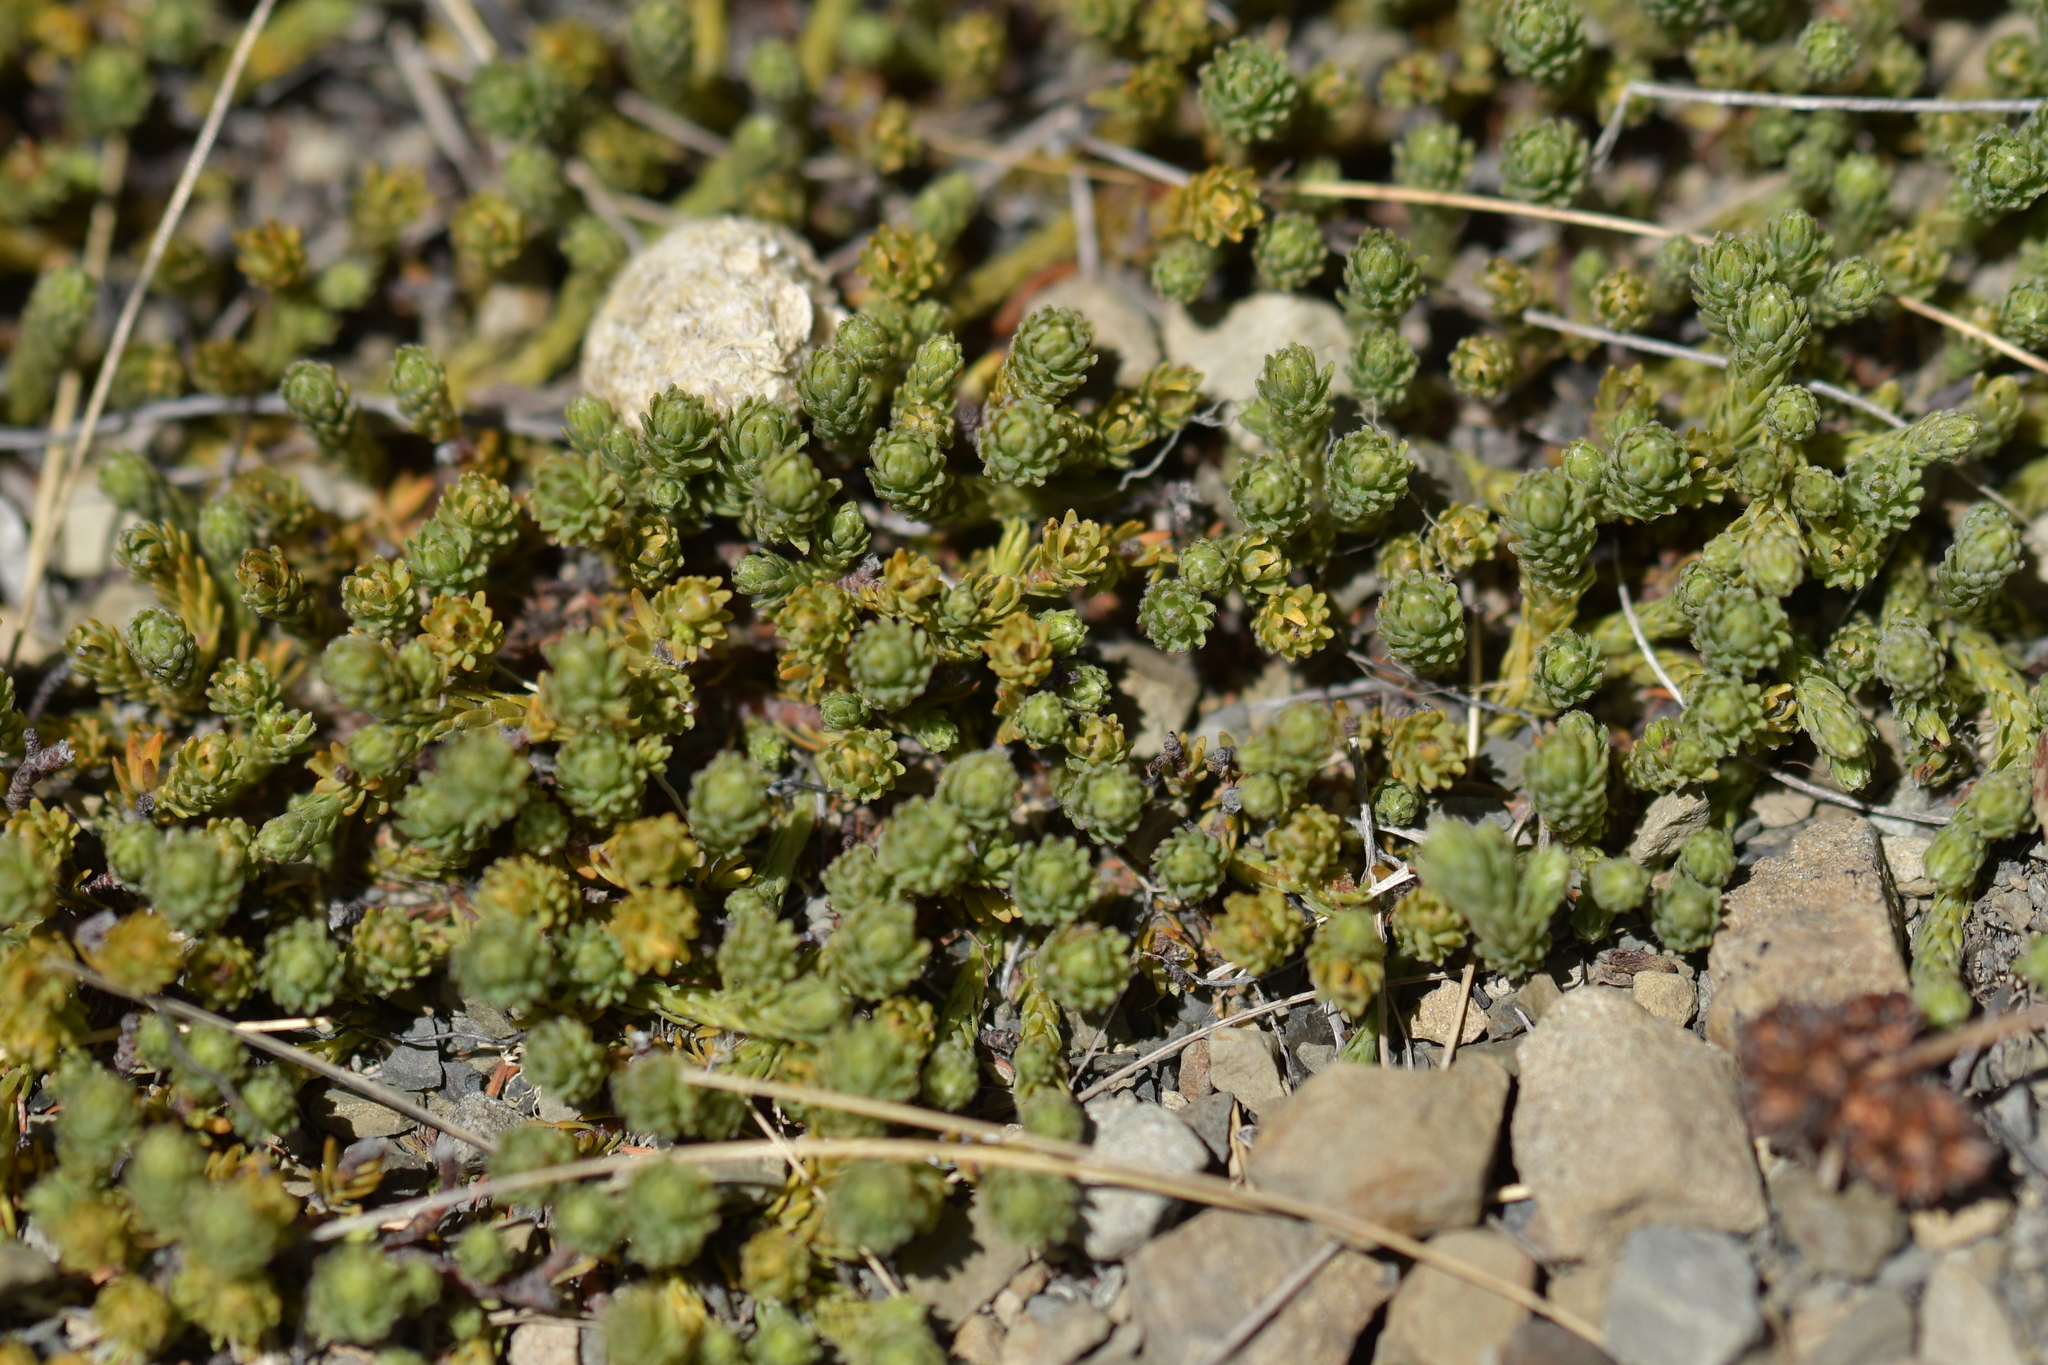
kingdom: Plantae
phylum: Tracheophyta
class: Magnoliopsida
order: Malvales
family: Thymelaeaceae
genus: Kelleria
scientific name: Kelleria dieffenbachii
